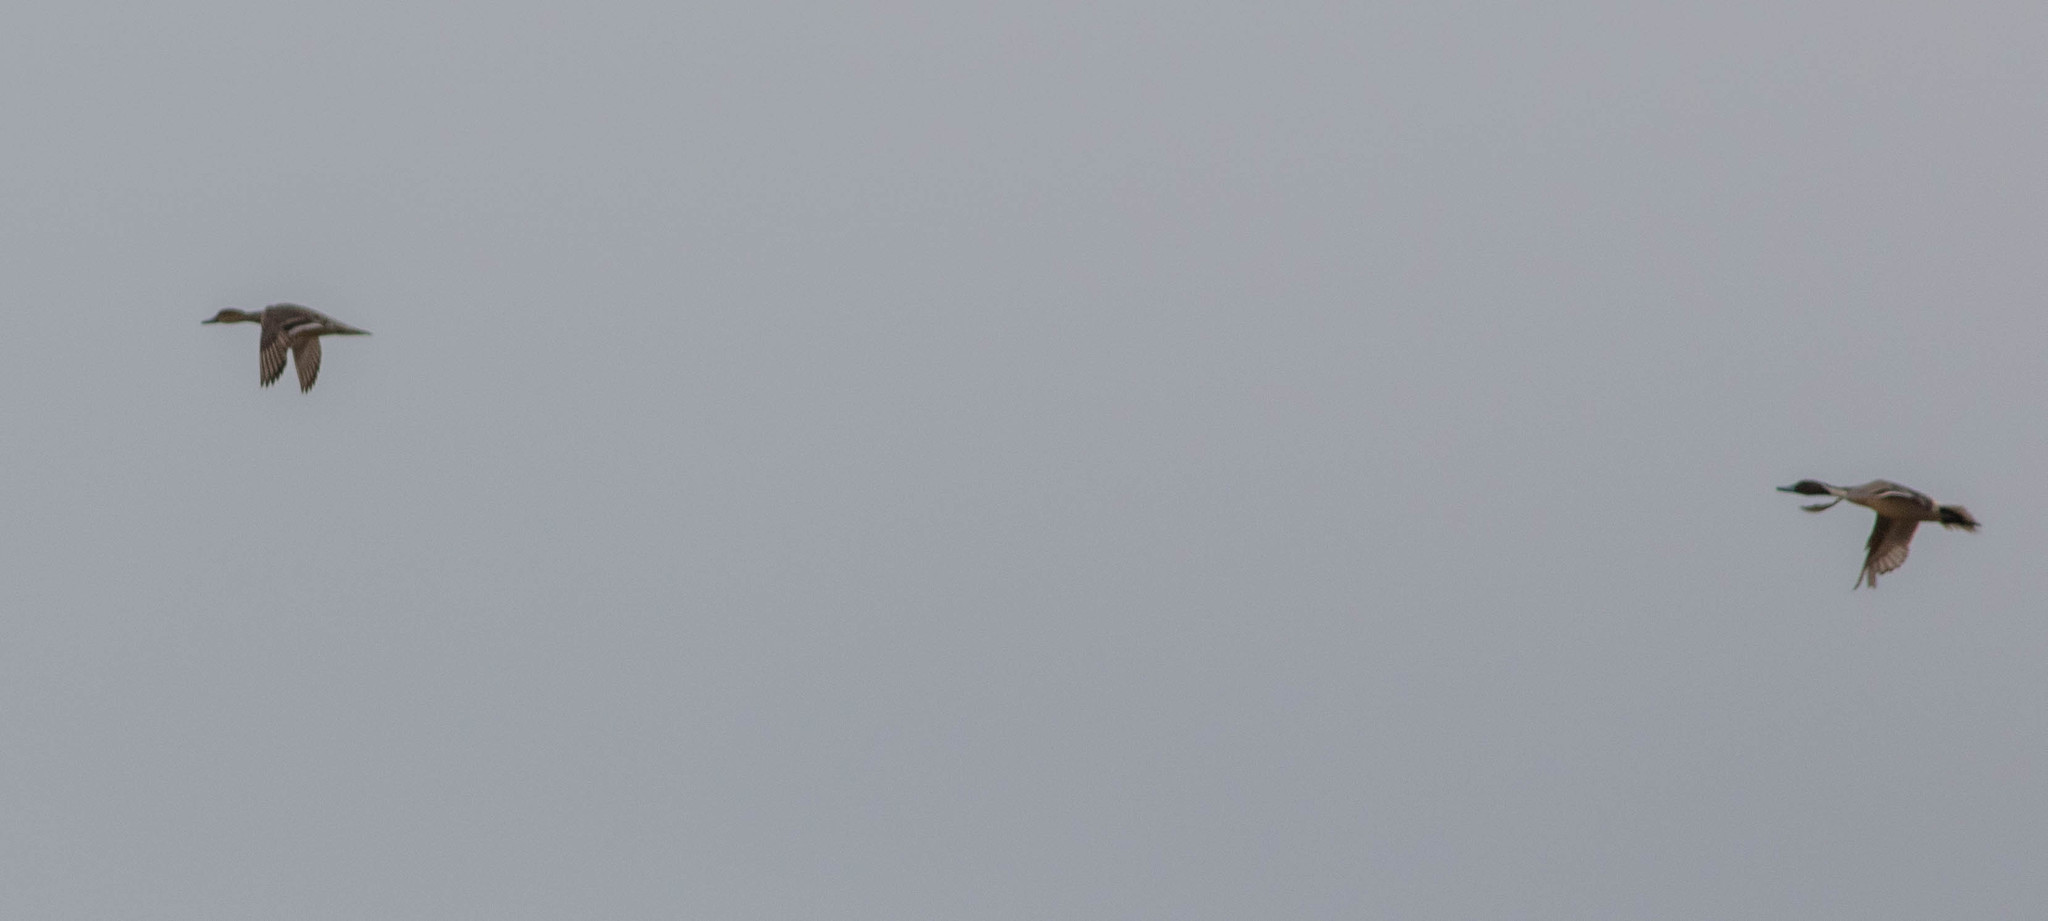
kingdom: Animalia
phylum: Chordata
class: Aves
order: Anseriformes
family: Anatidae
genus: Anas
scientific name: Anas acuta
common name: Northern pintail
